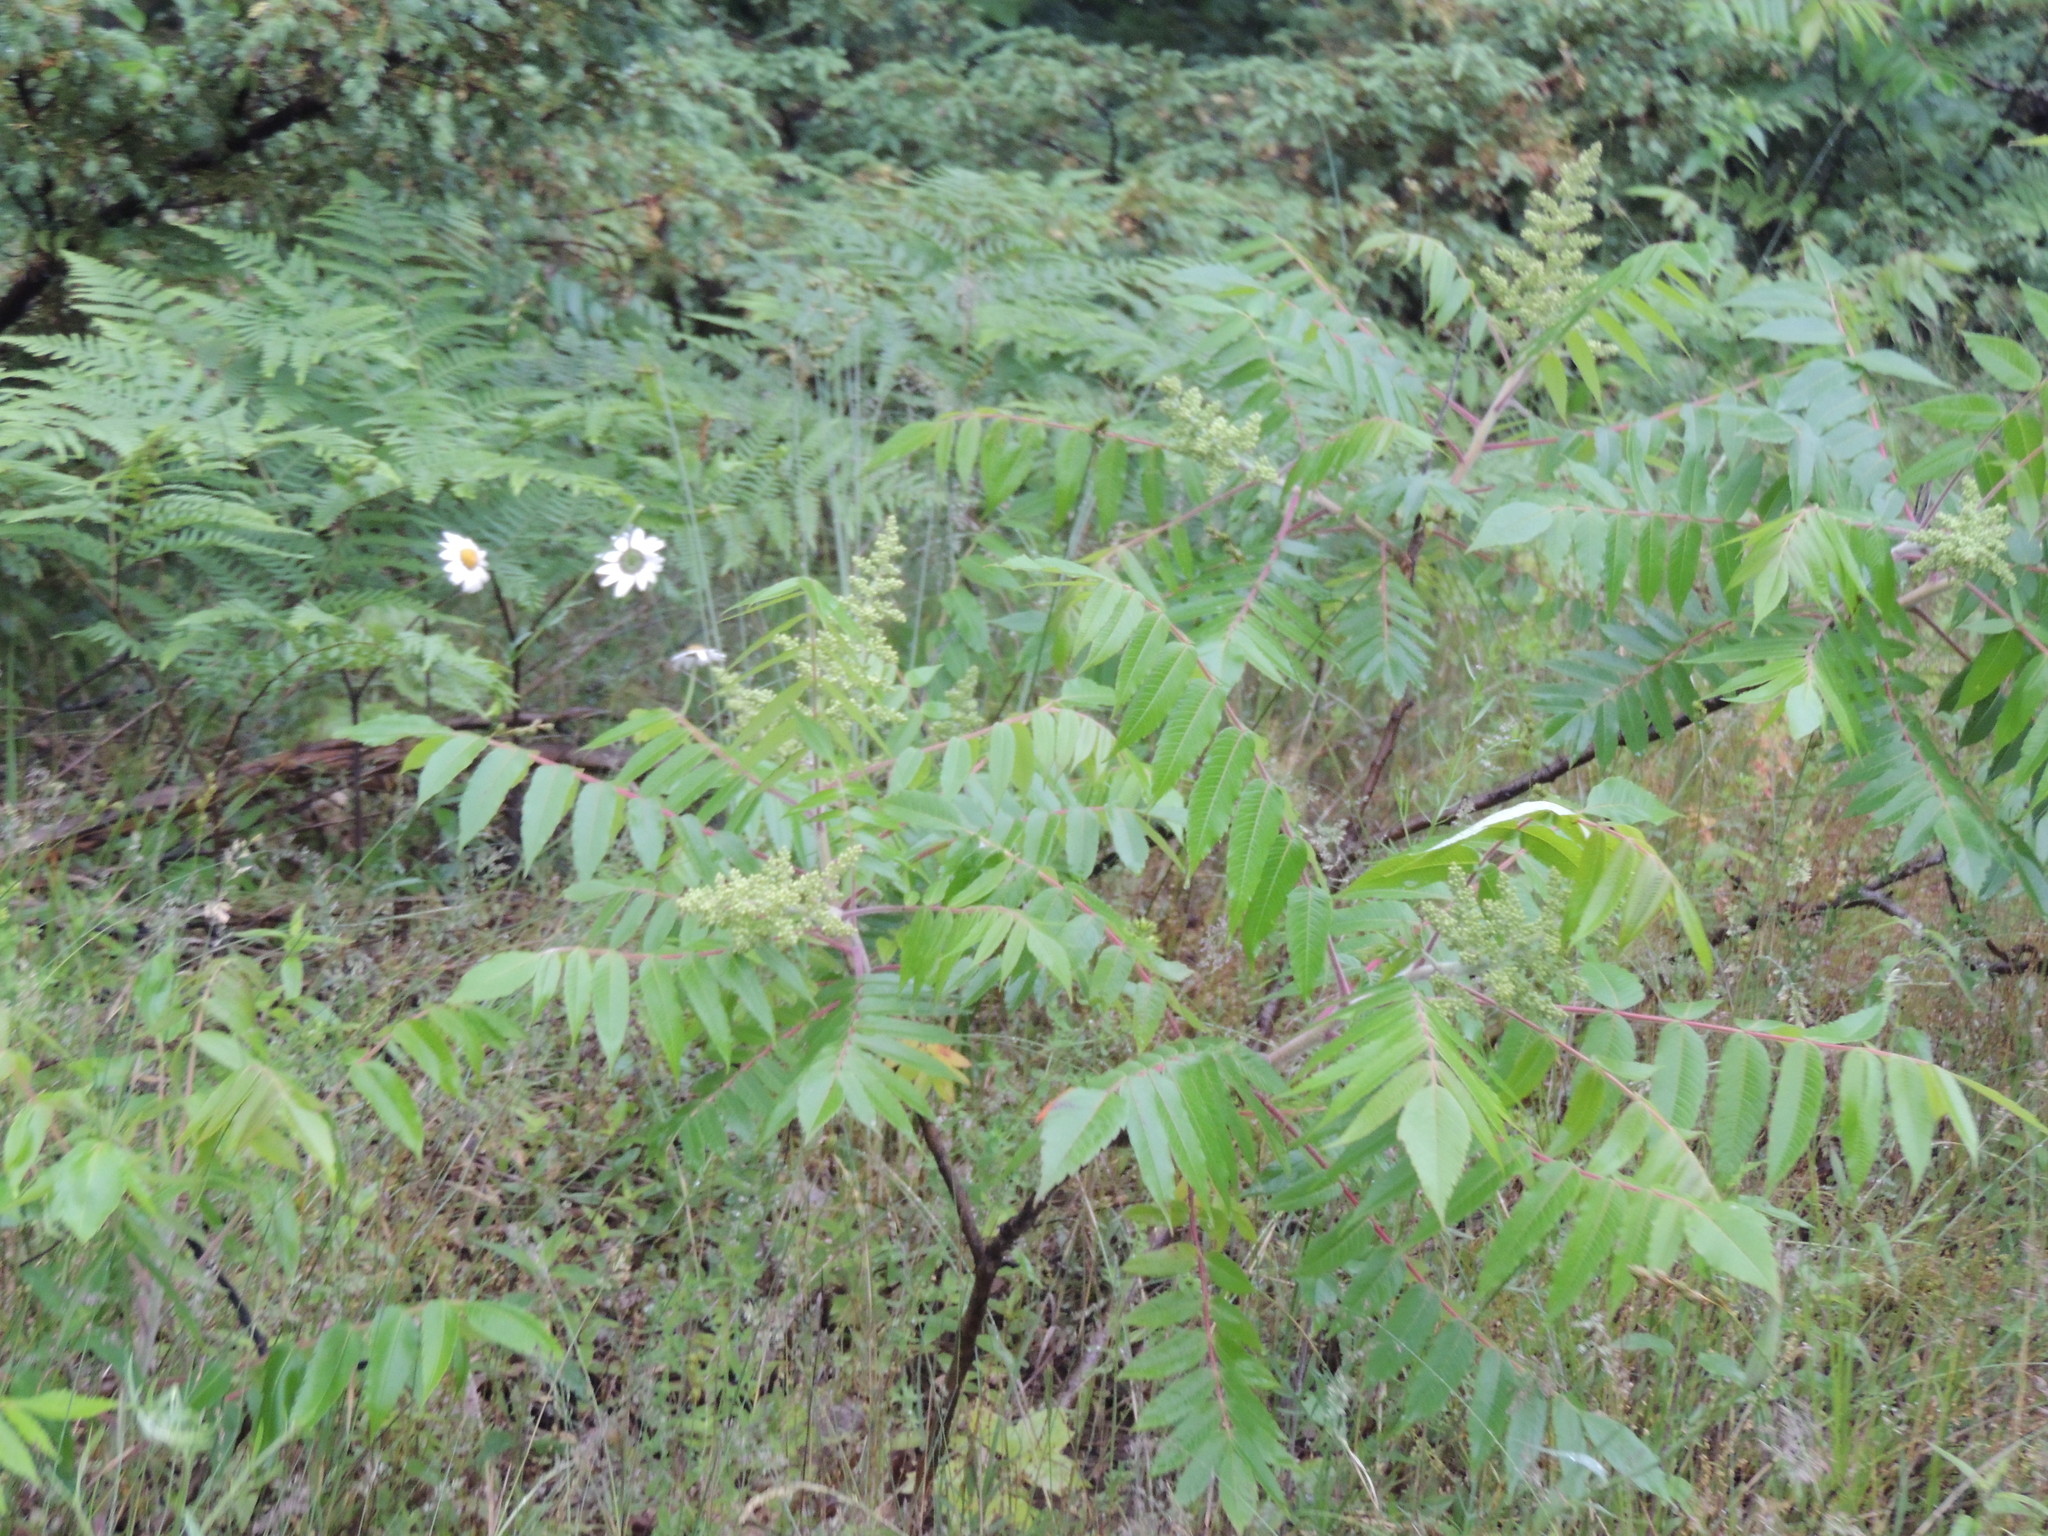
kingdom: Plantae
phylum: Tracheophyta
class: Magnoliopsida
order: Sapindales
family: Anacardiaceae
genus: Rhus
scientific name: Rhus typhina
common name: Staghorn sumac
